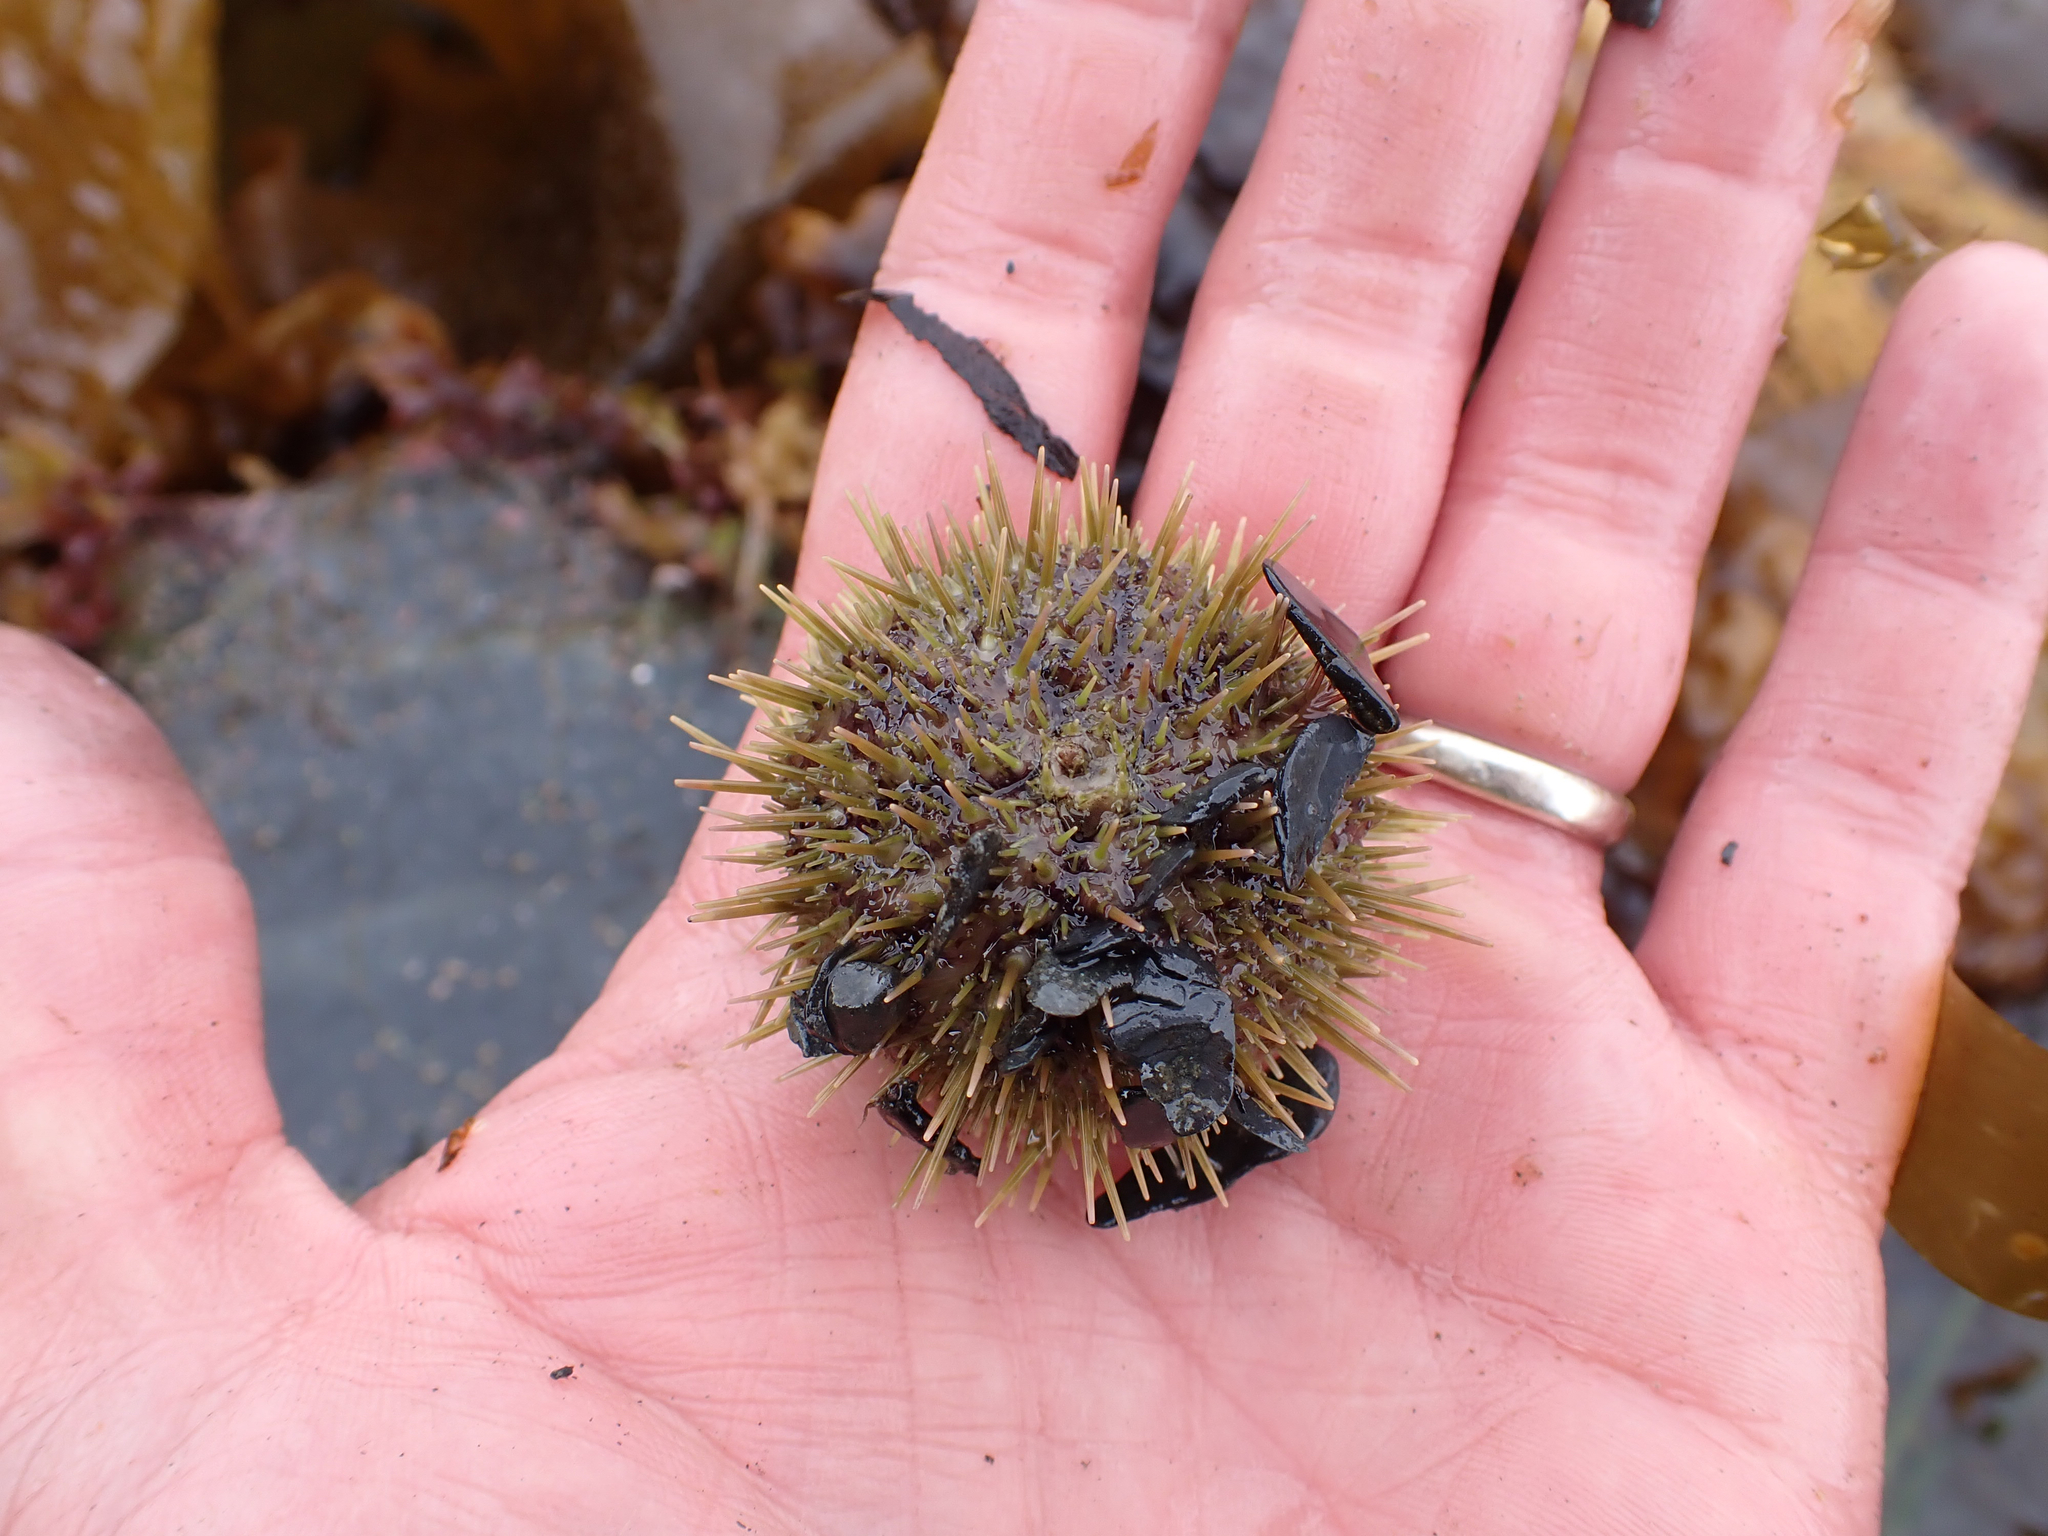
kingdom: Animalia
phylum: Echinodermata
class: Echinoidea
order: Camarodonta
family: Strongylocentrotidae
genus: Strongylocentrotus
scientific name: Strongylocentrotus droebachiensis
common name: Northern sea urchin
